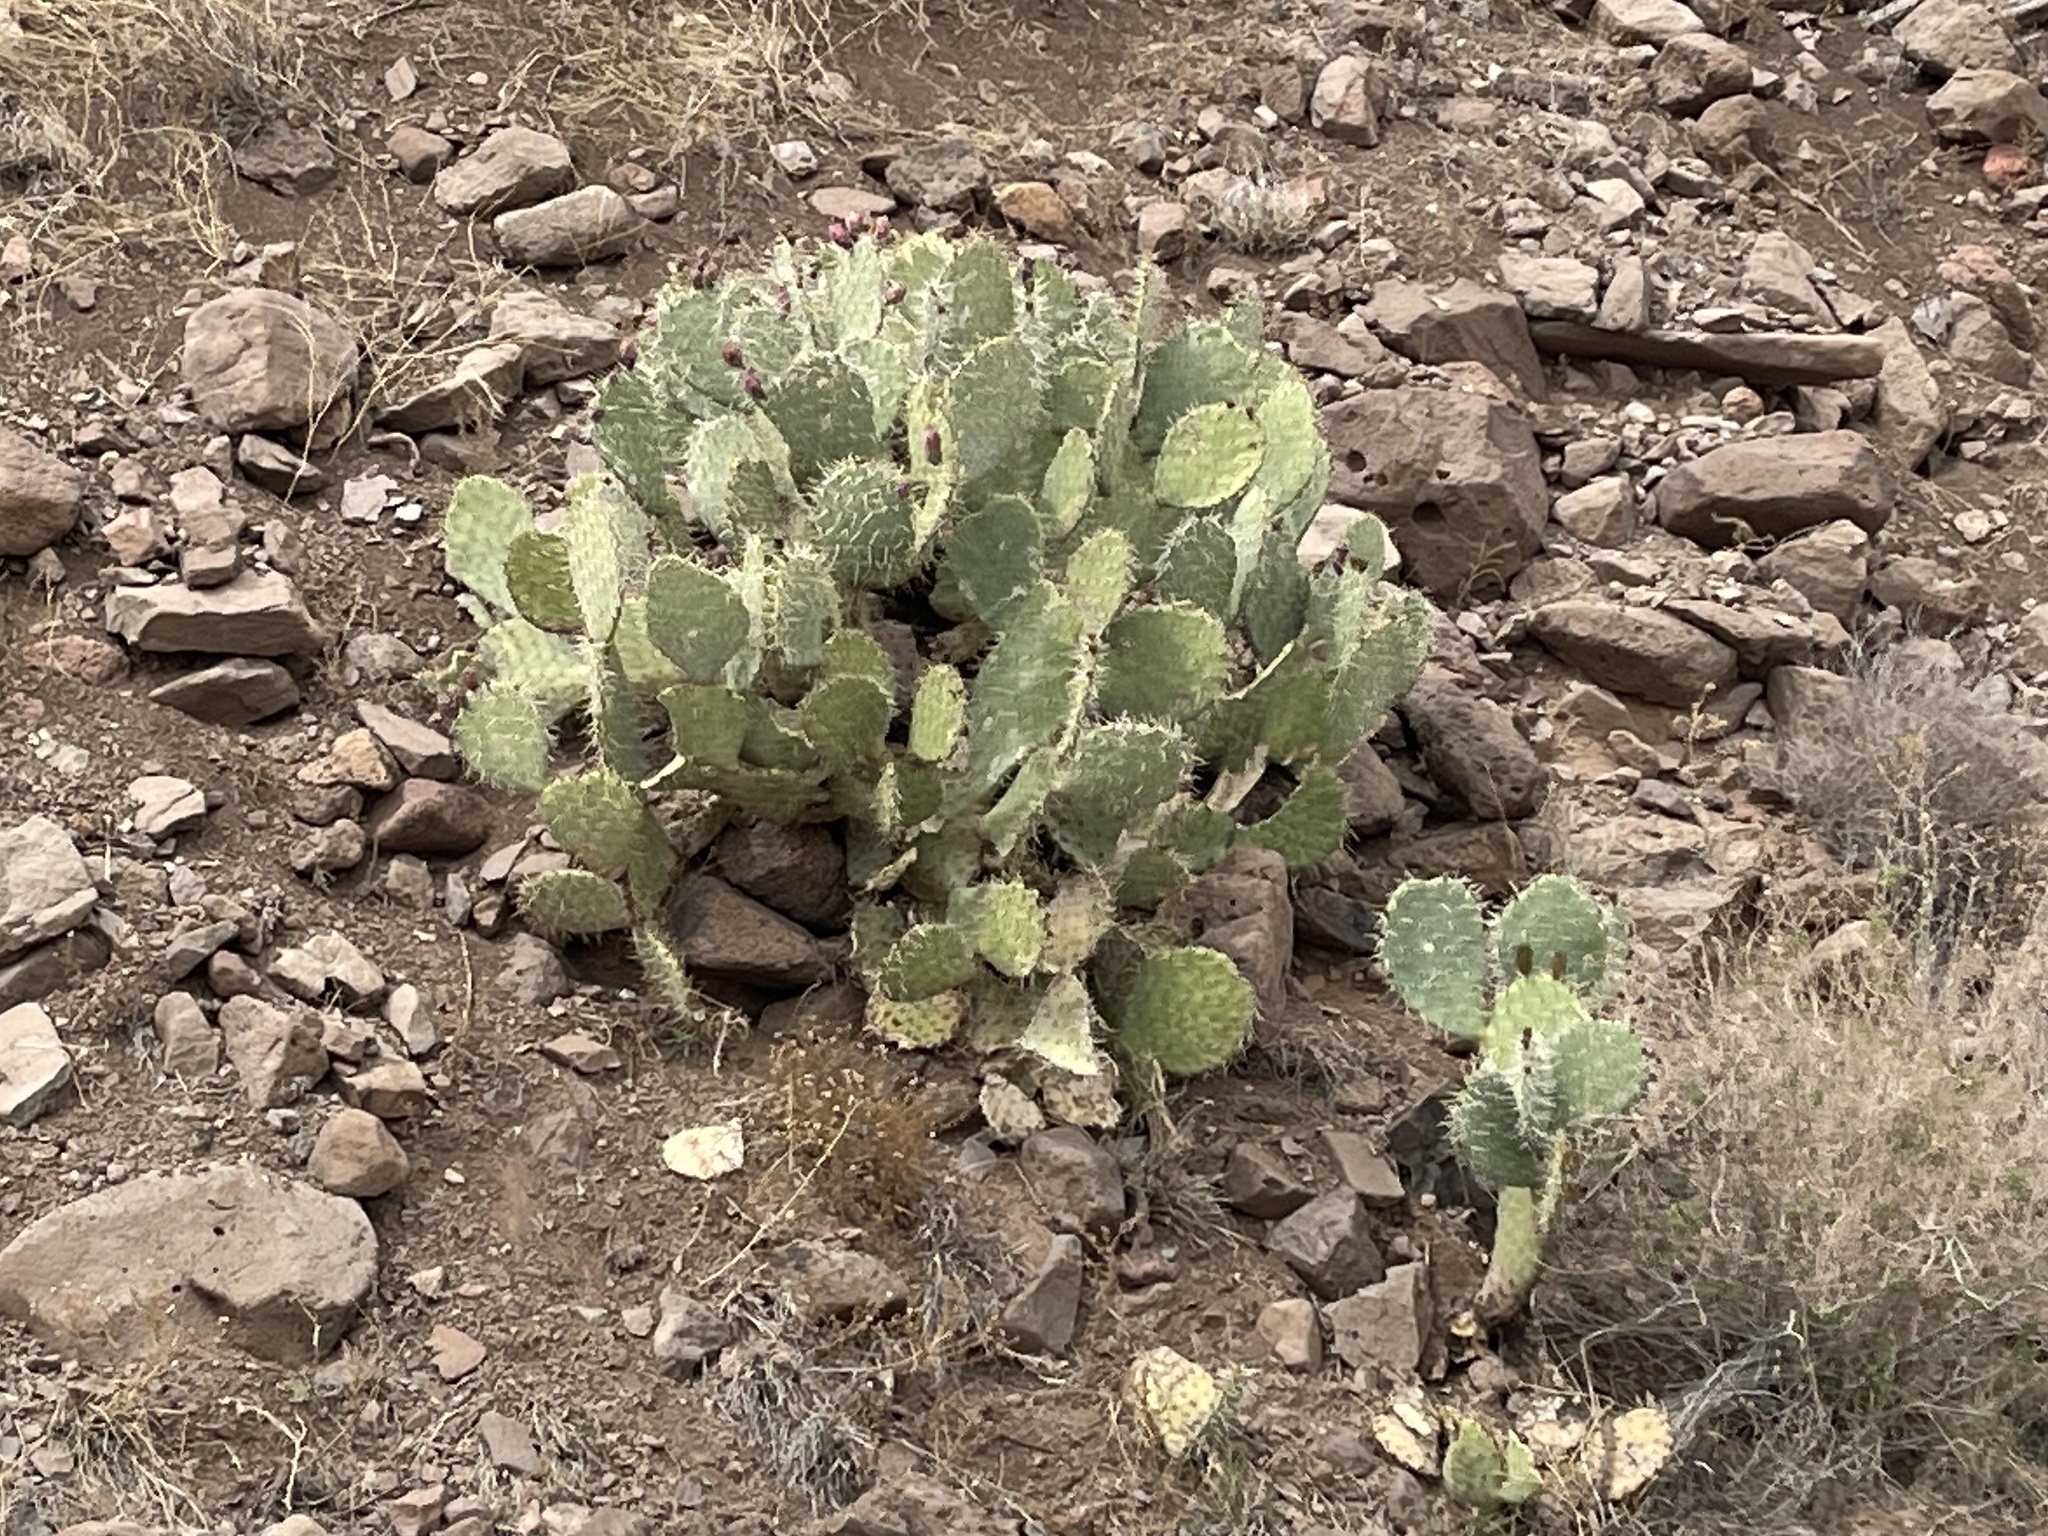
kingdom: Plantae
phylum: Tracheophyta
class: Magnoliopsida
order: Caryophyllales
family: Cactaceae
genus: Opuntia
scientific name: Opuntia engelmannii
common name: Cactus-apple
